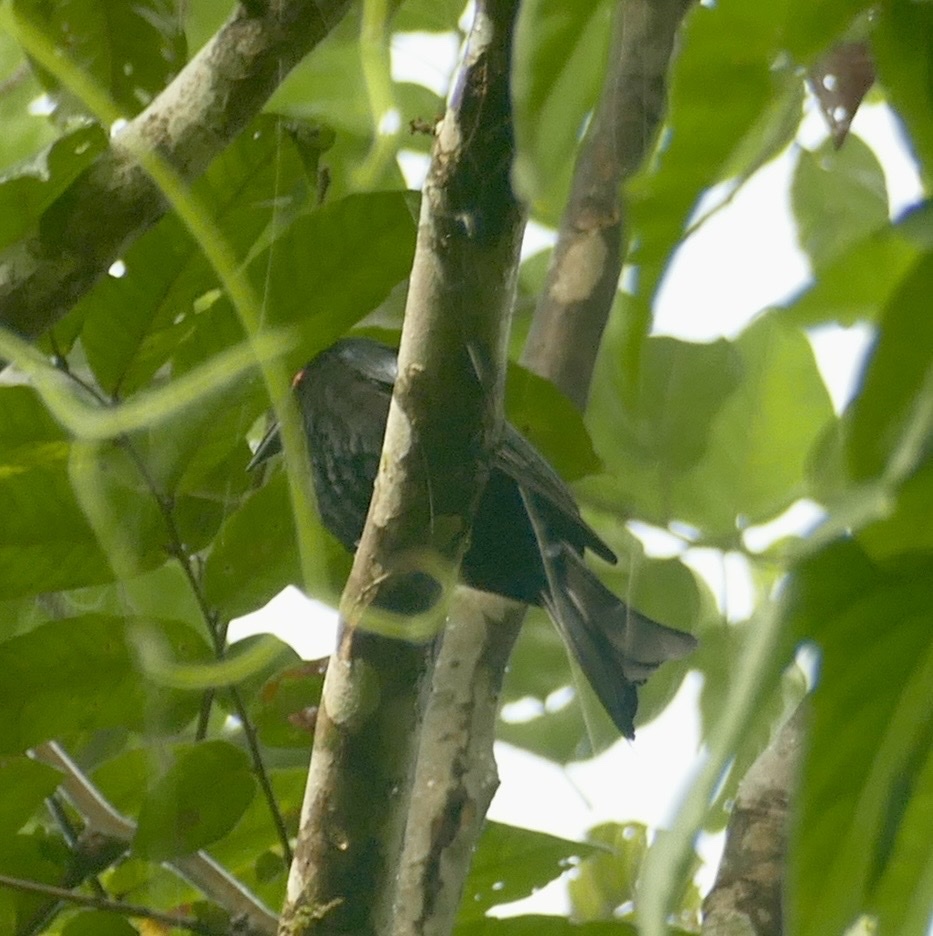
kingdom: Animalia
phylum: Chordata
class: Aves
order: Passeriformes
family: Dicruridae
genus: Dicrurus
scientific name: Dicrurus bracteatus
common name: Spangled drongo
